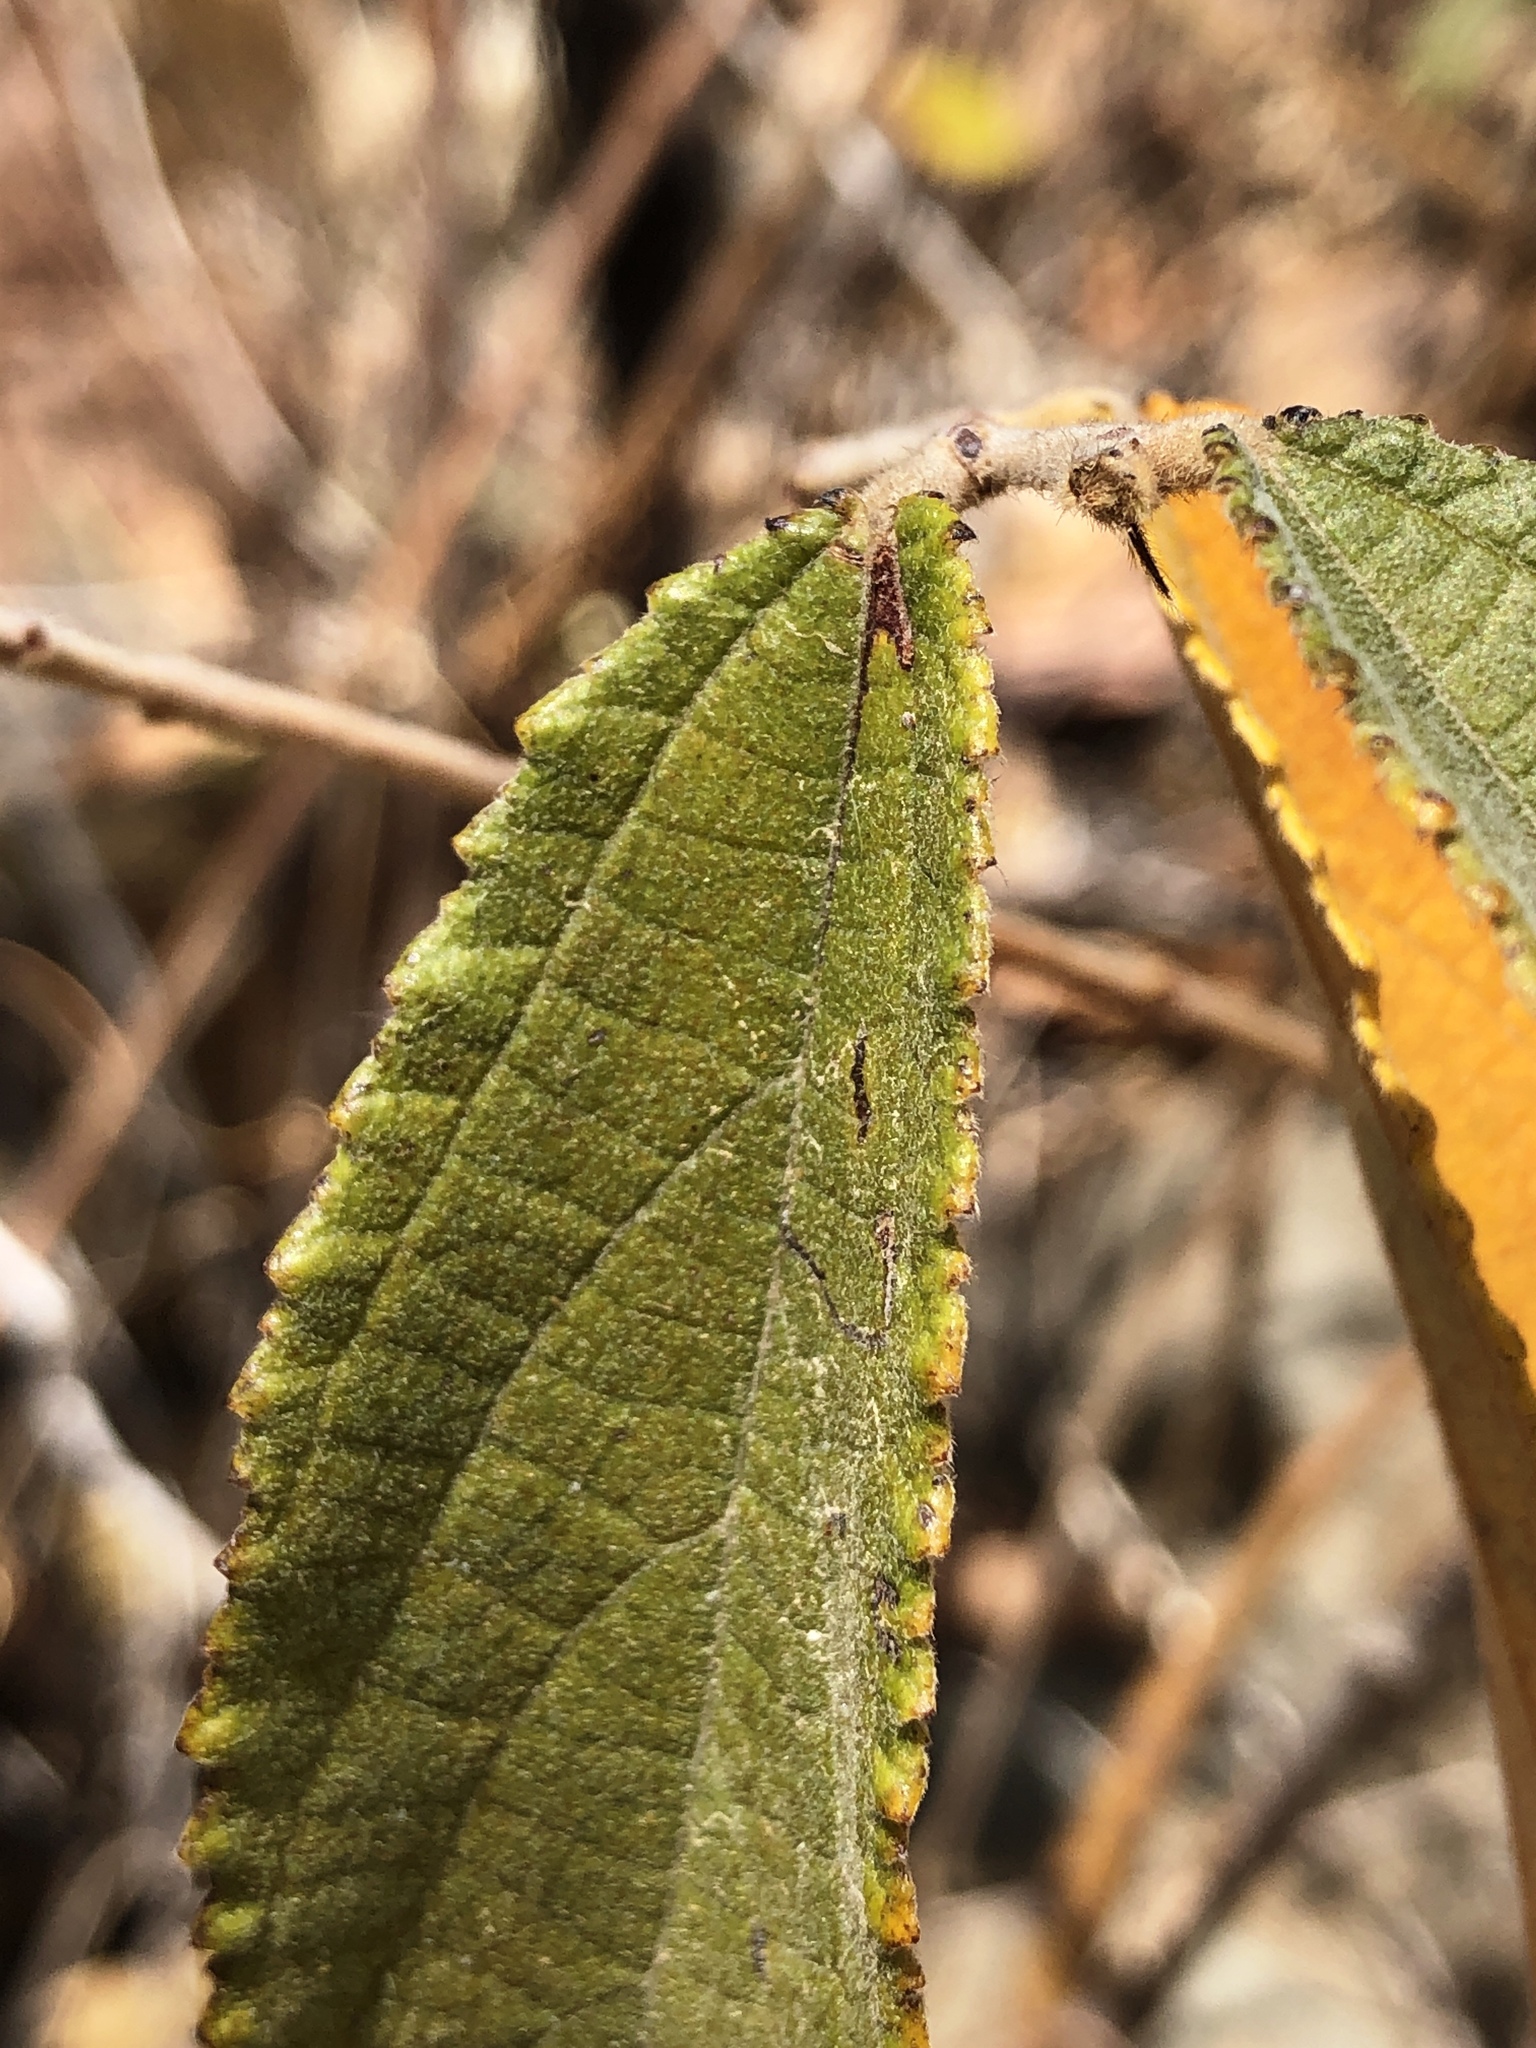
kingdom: Plantae
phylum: Tracheophyta
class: Magnoliopsida
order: Malvales
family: Malvaceae
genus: Grewia
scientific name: Grewia savannicola
